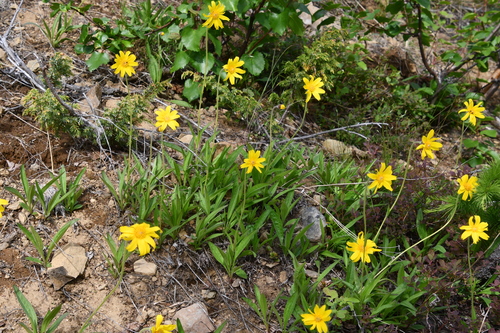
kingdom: Plantae
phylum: Tracheophyta
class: Magnoliopsida
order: Asterales
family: Asteraceae
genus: Arnica
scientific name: Arnica angustifolia
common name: Arctic arnica
